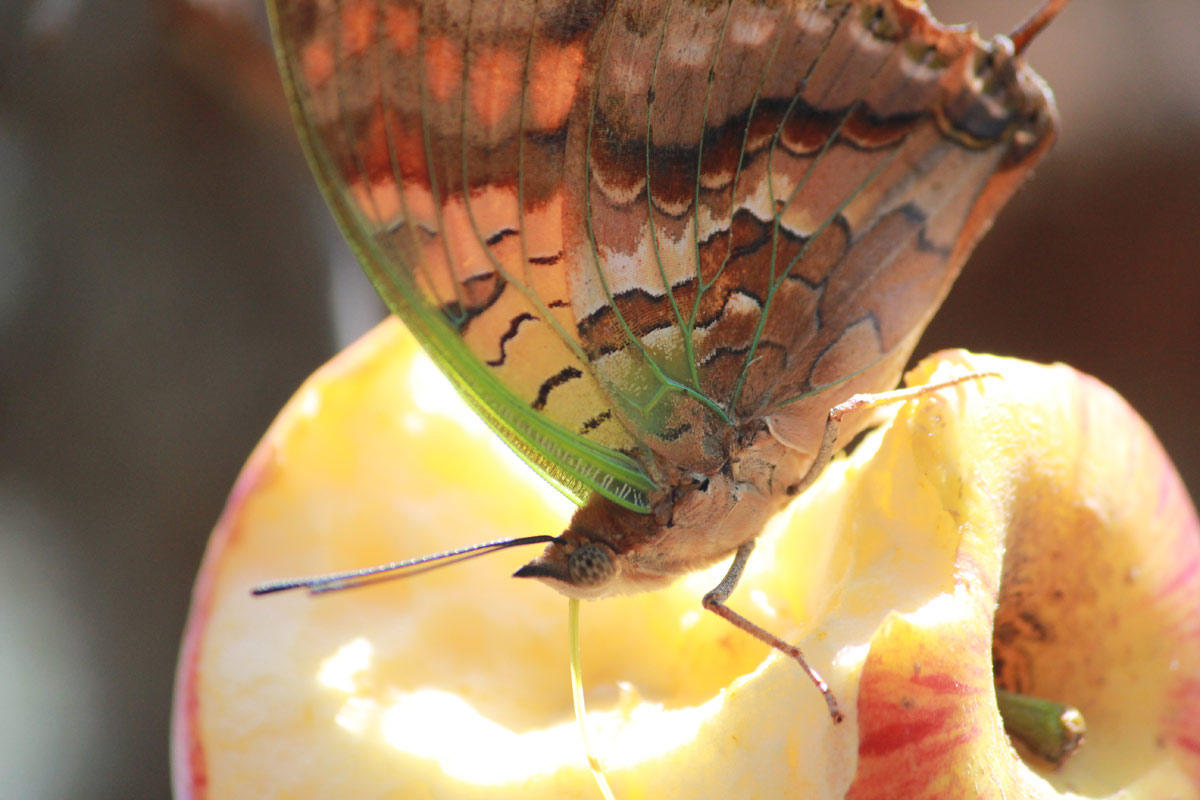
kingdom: Animalia
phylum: Arthropoda
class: Insecta
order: Lepidoptera
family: Nymphalidae
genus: Charaxes
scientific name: Charaxes candiope
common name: Green-veined charaxes
